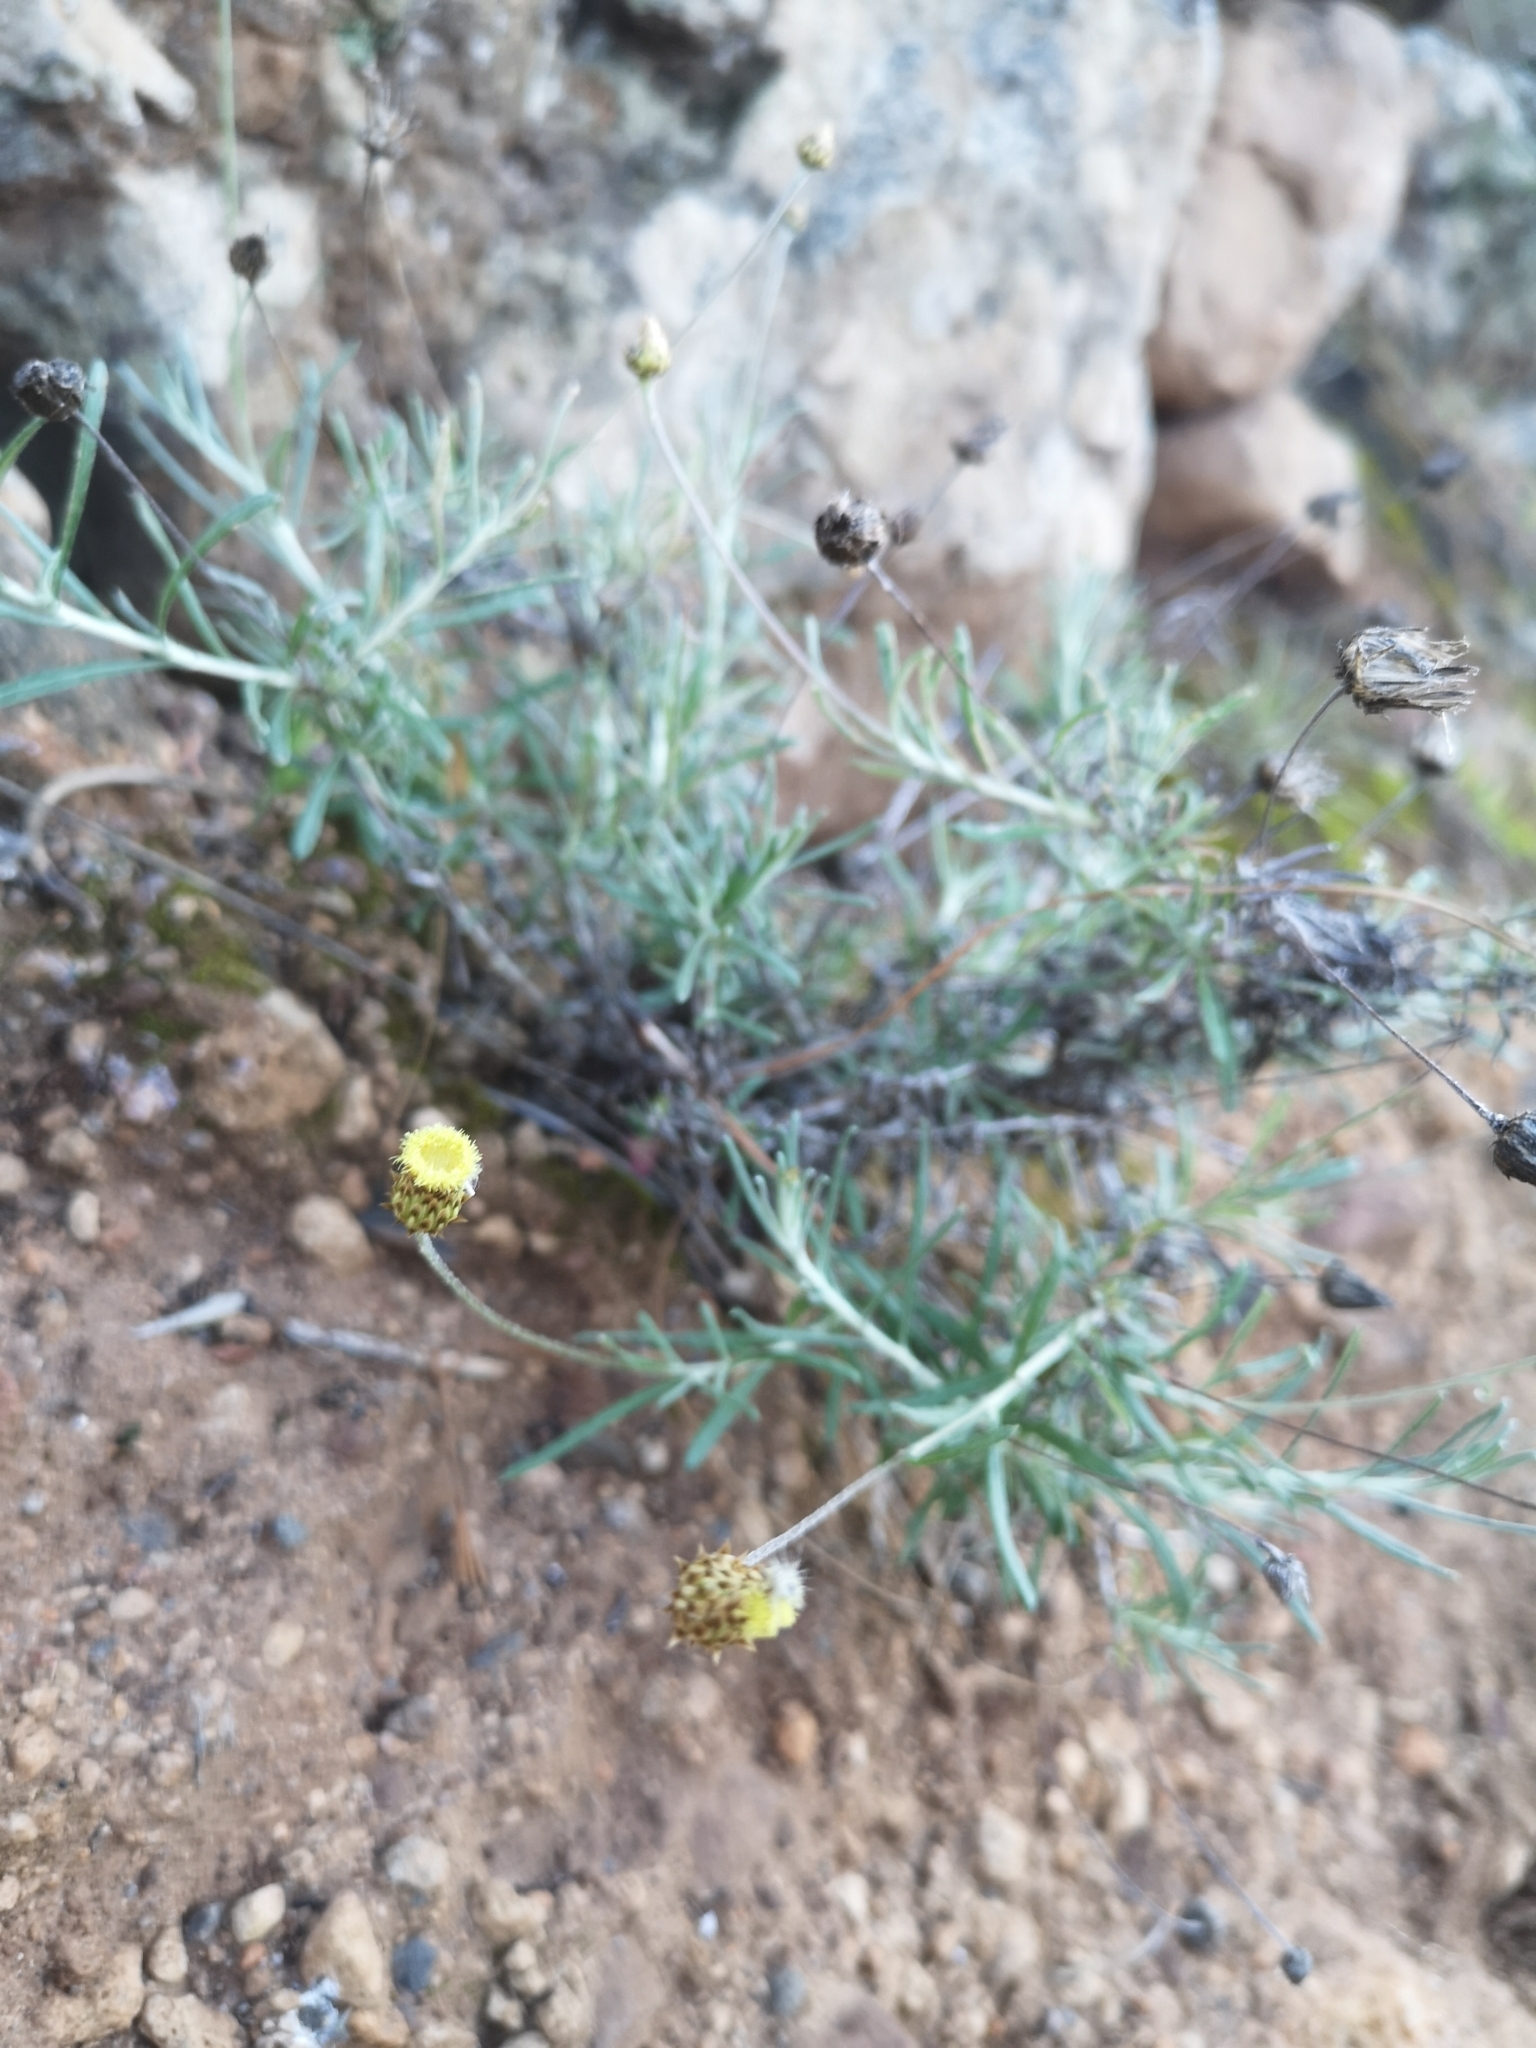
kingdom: Plantae
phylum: Tracheophyta
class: Magnoliopsida
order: Asterales
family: Asteraceae
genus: Phagnalon
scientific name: Phagnalon saxatile
